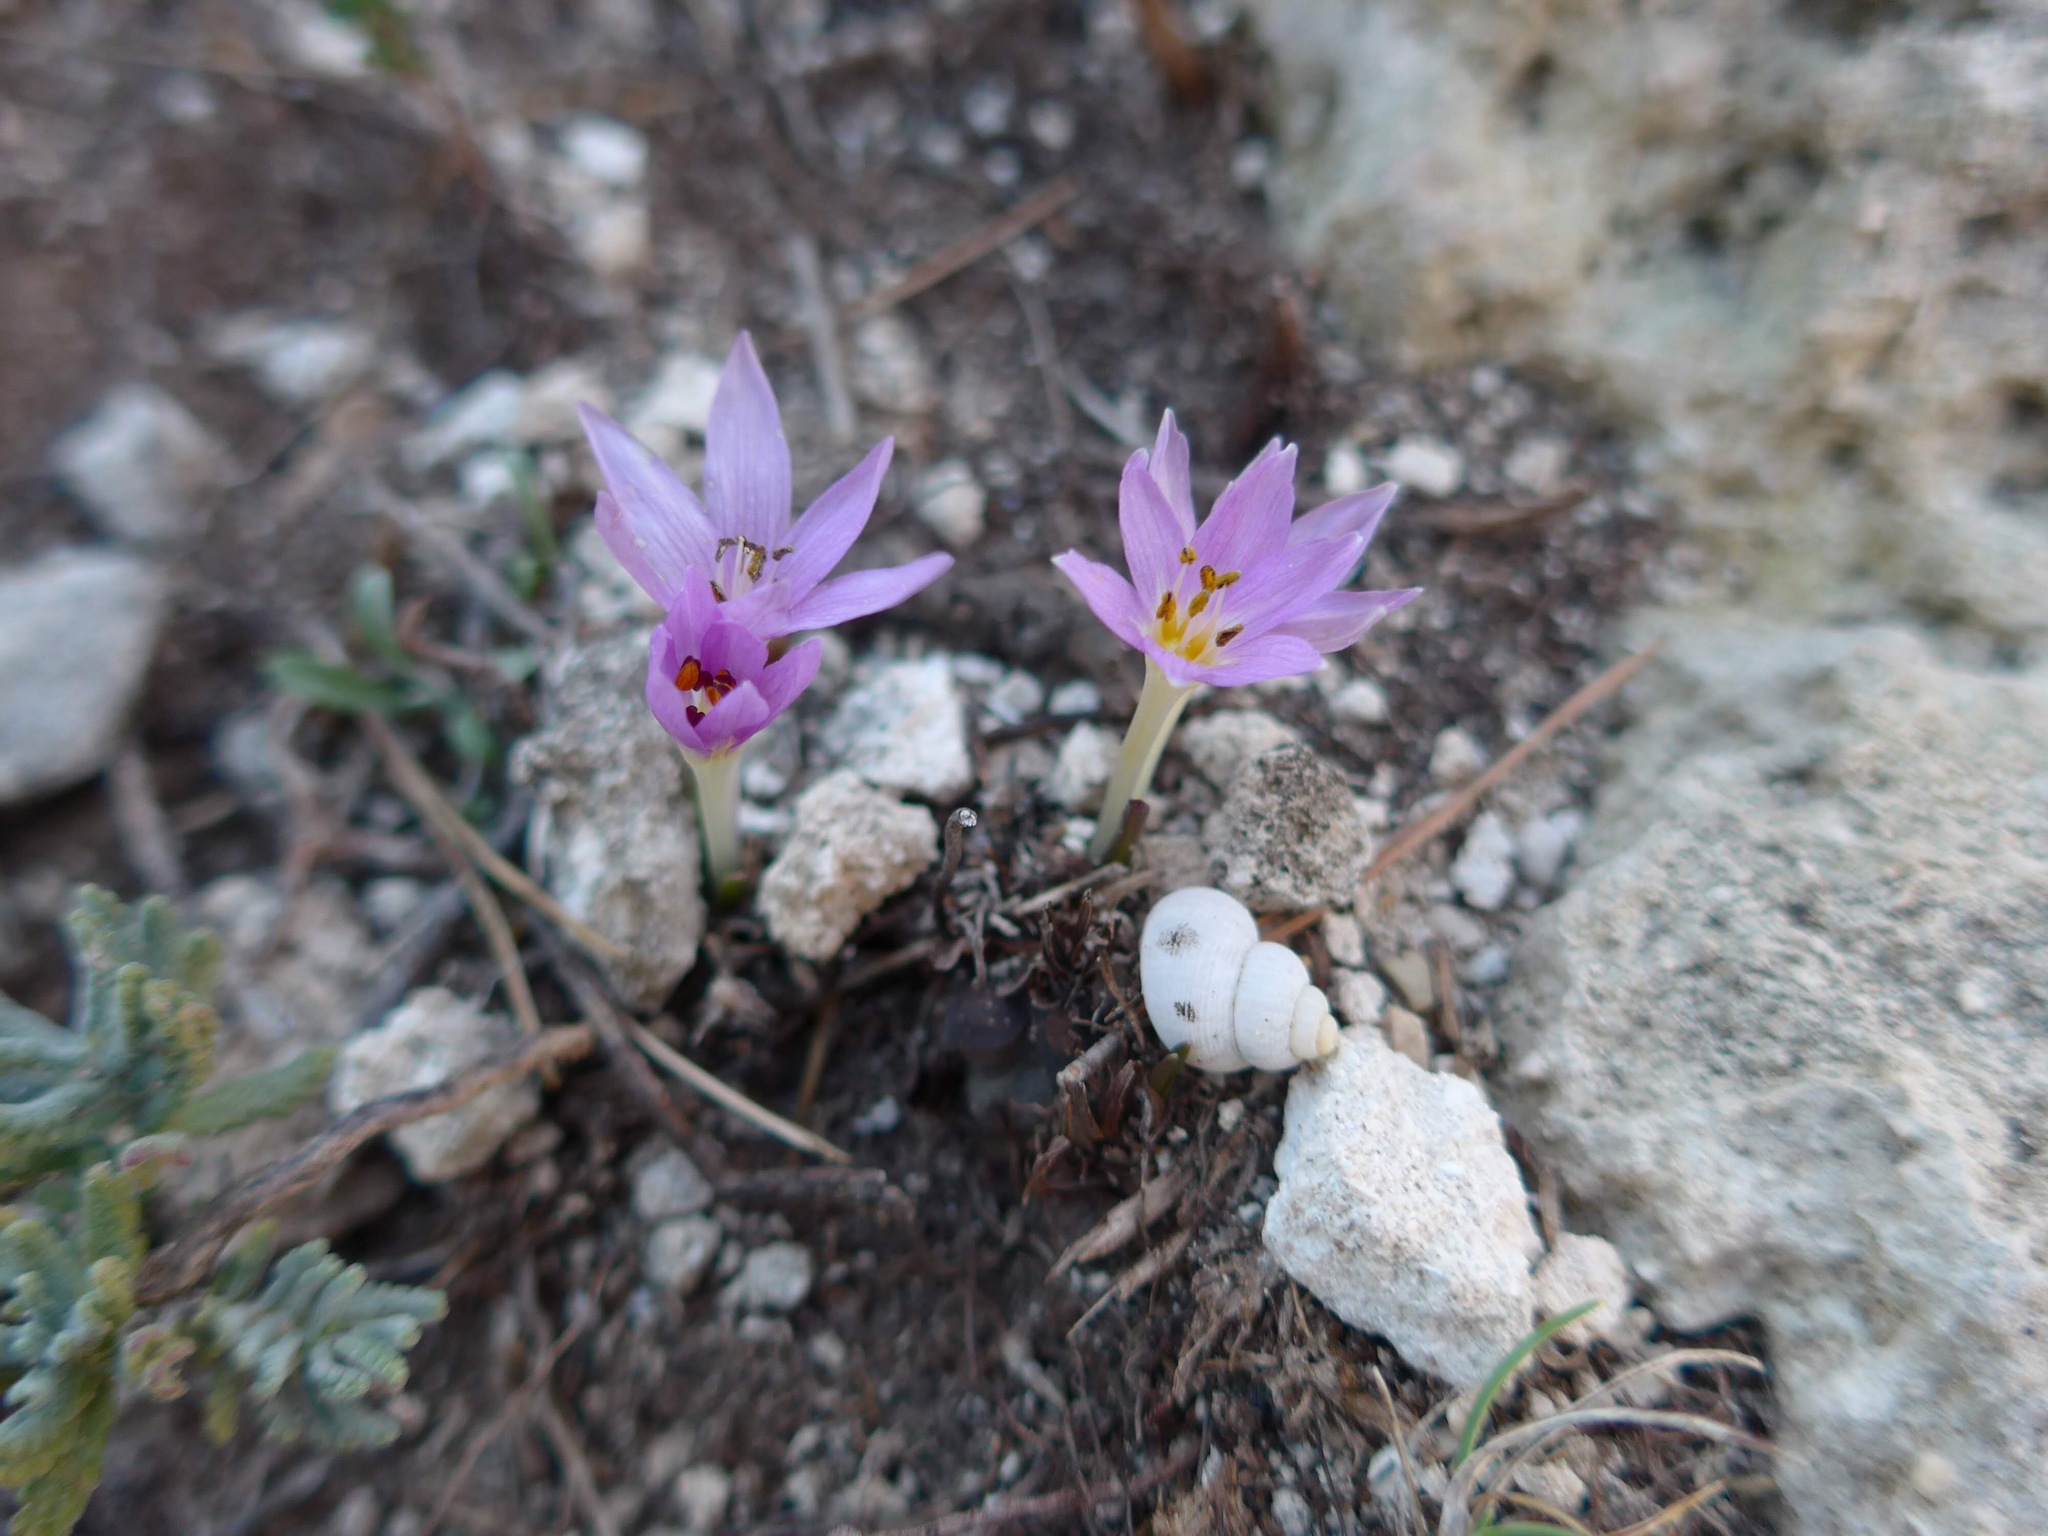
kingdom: Plantae
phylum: Tracheophyta
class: Liliopsida
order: Liliales
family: Colchicaceae
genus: Colchicum
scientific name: Colchicum neapolitanum
